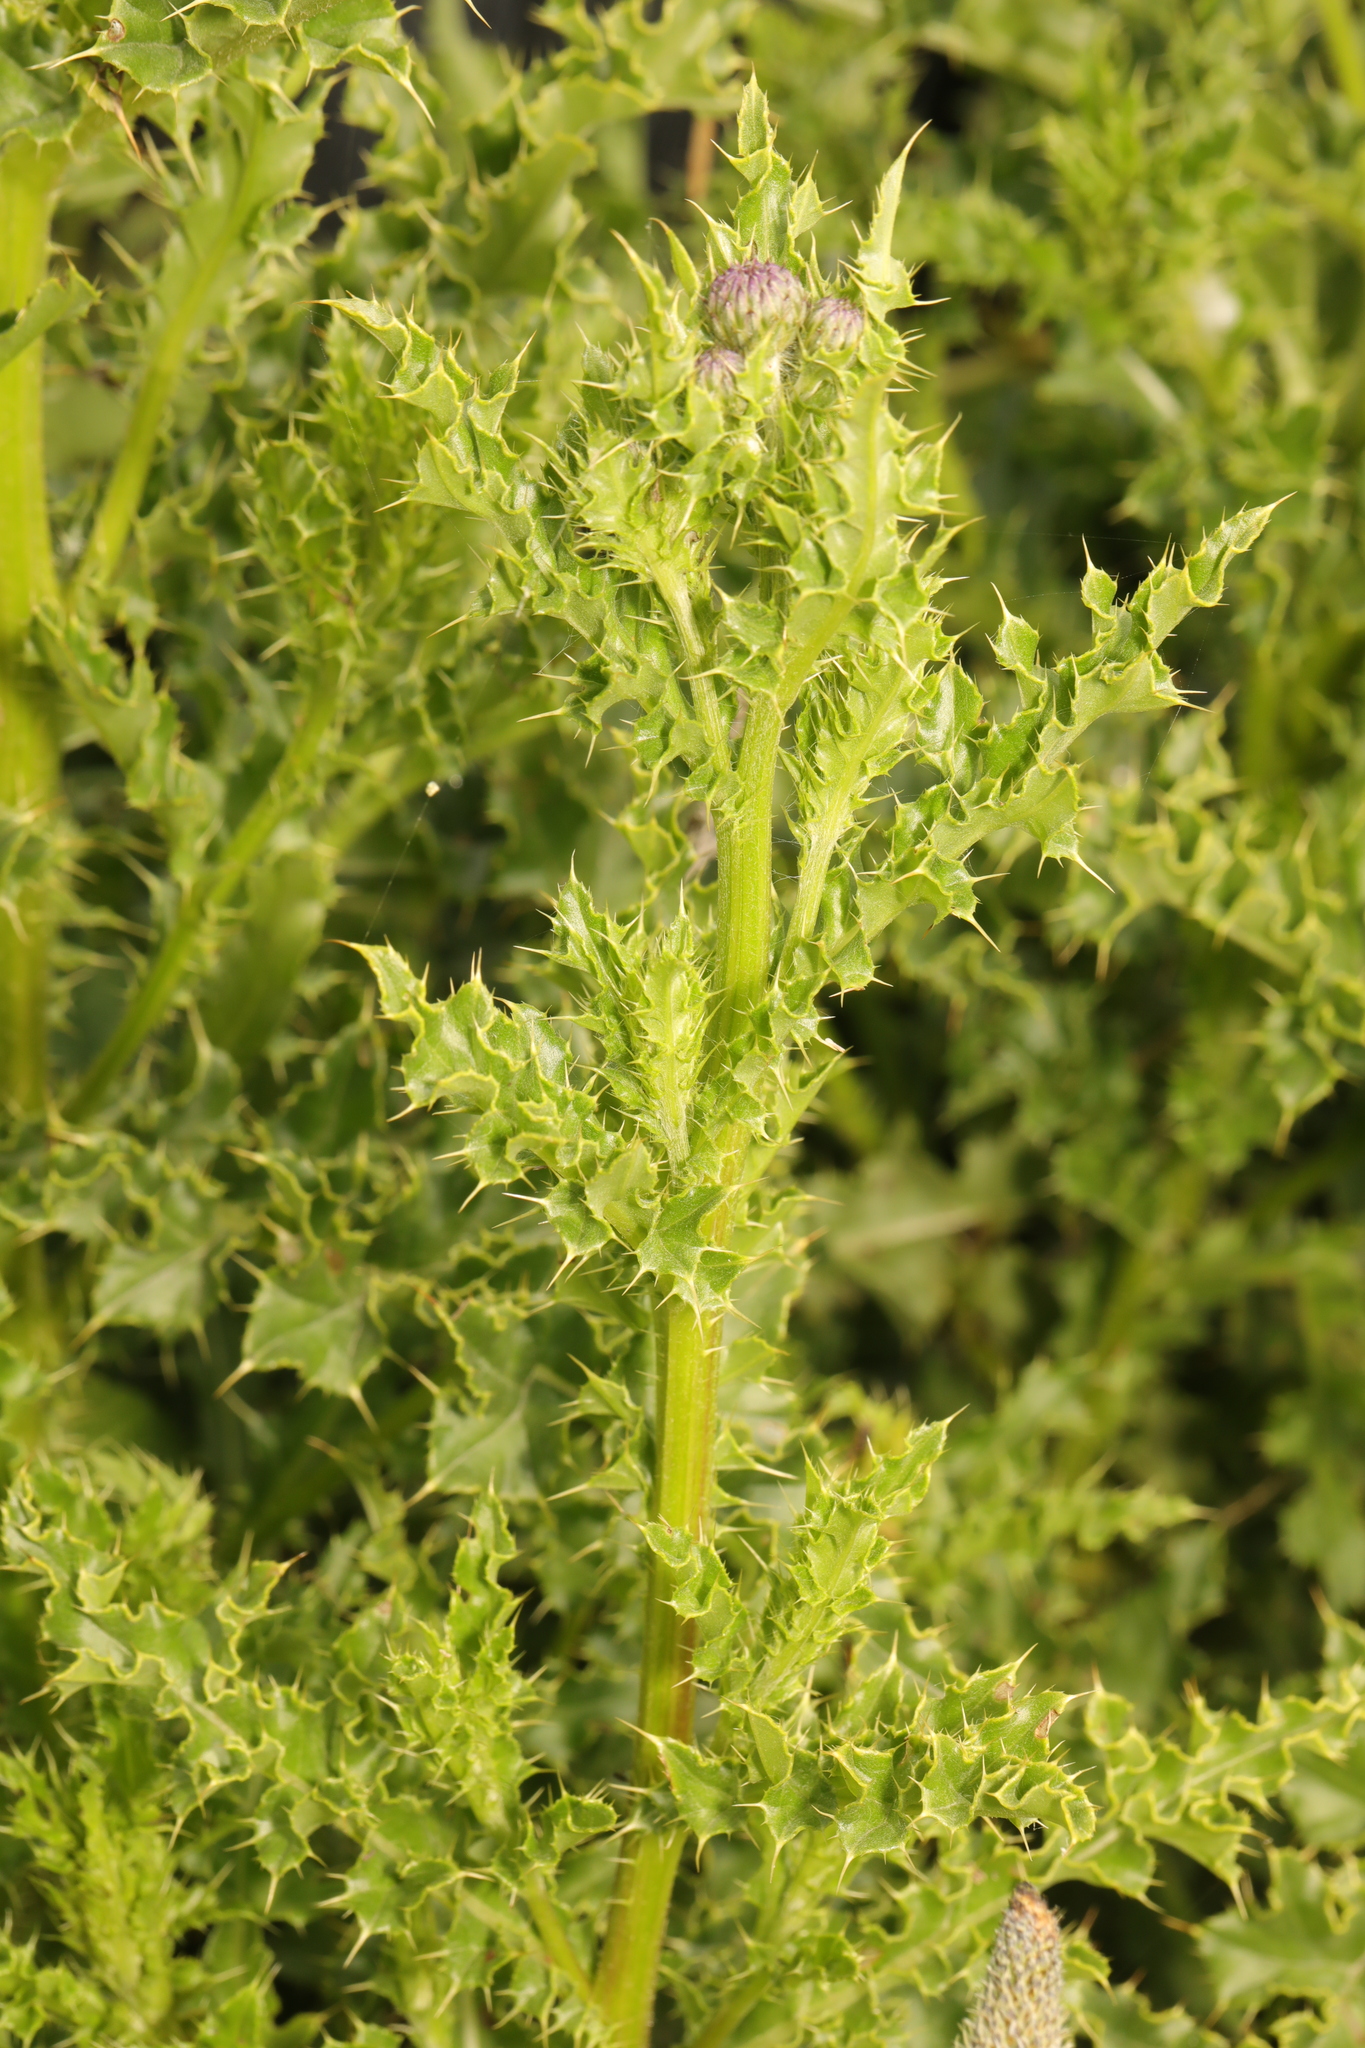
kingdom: Plantae
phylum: Tracheophyta
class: Magnoliopsida
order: Asterales
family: Asteraceae
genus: Cirsium
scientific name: Cirsium arvense
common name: Creeping thistle
